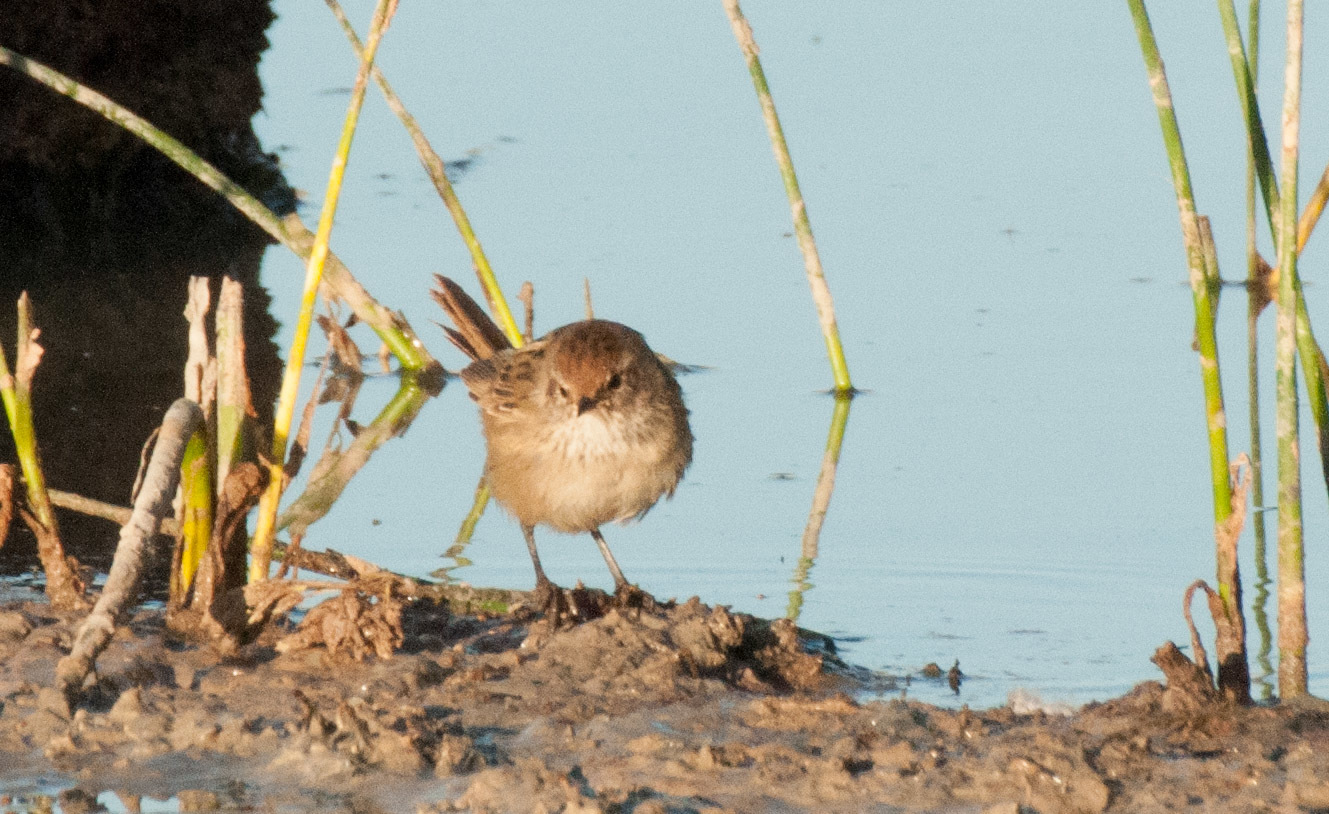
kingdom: Animalia
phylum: Chordata
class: Aves
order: Passeriformes
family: Locustellidae
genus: Megalurus
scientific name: Megalurus gramineus
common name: Little grassbird
